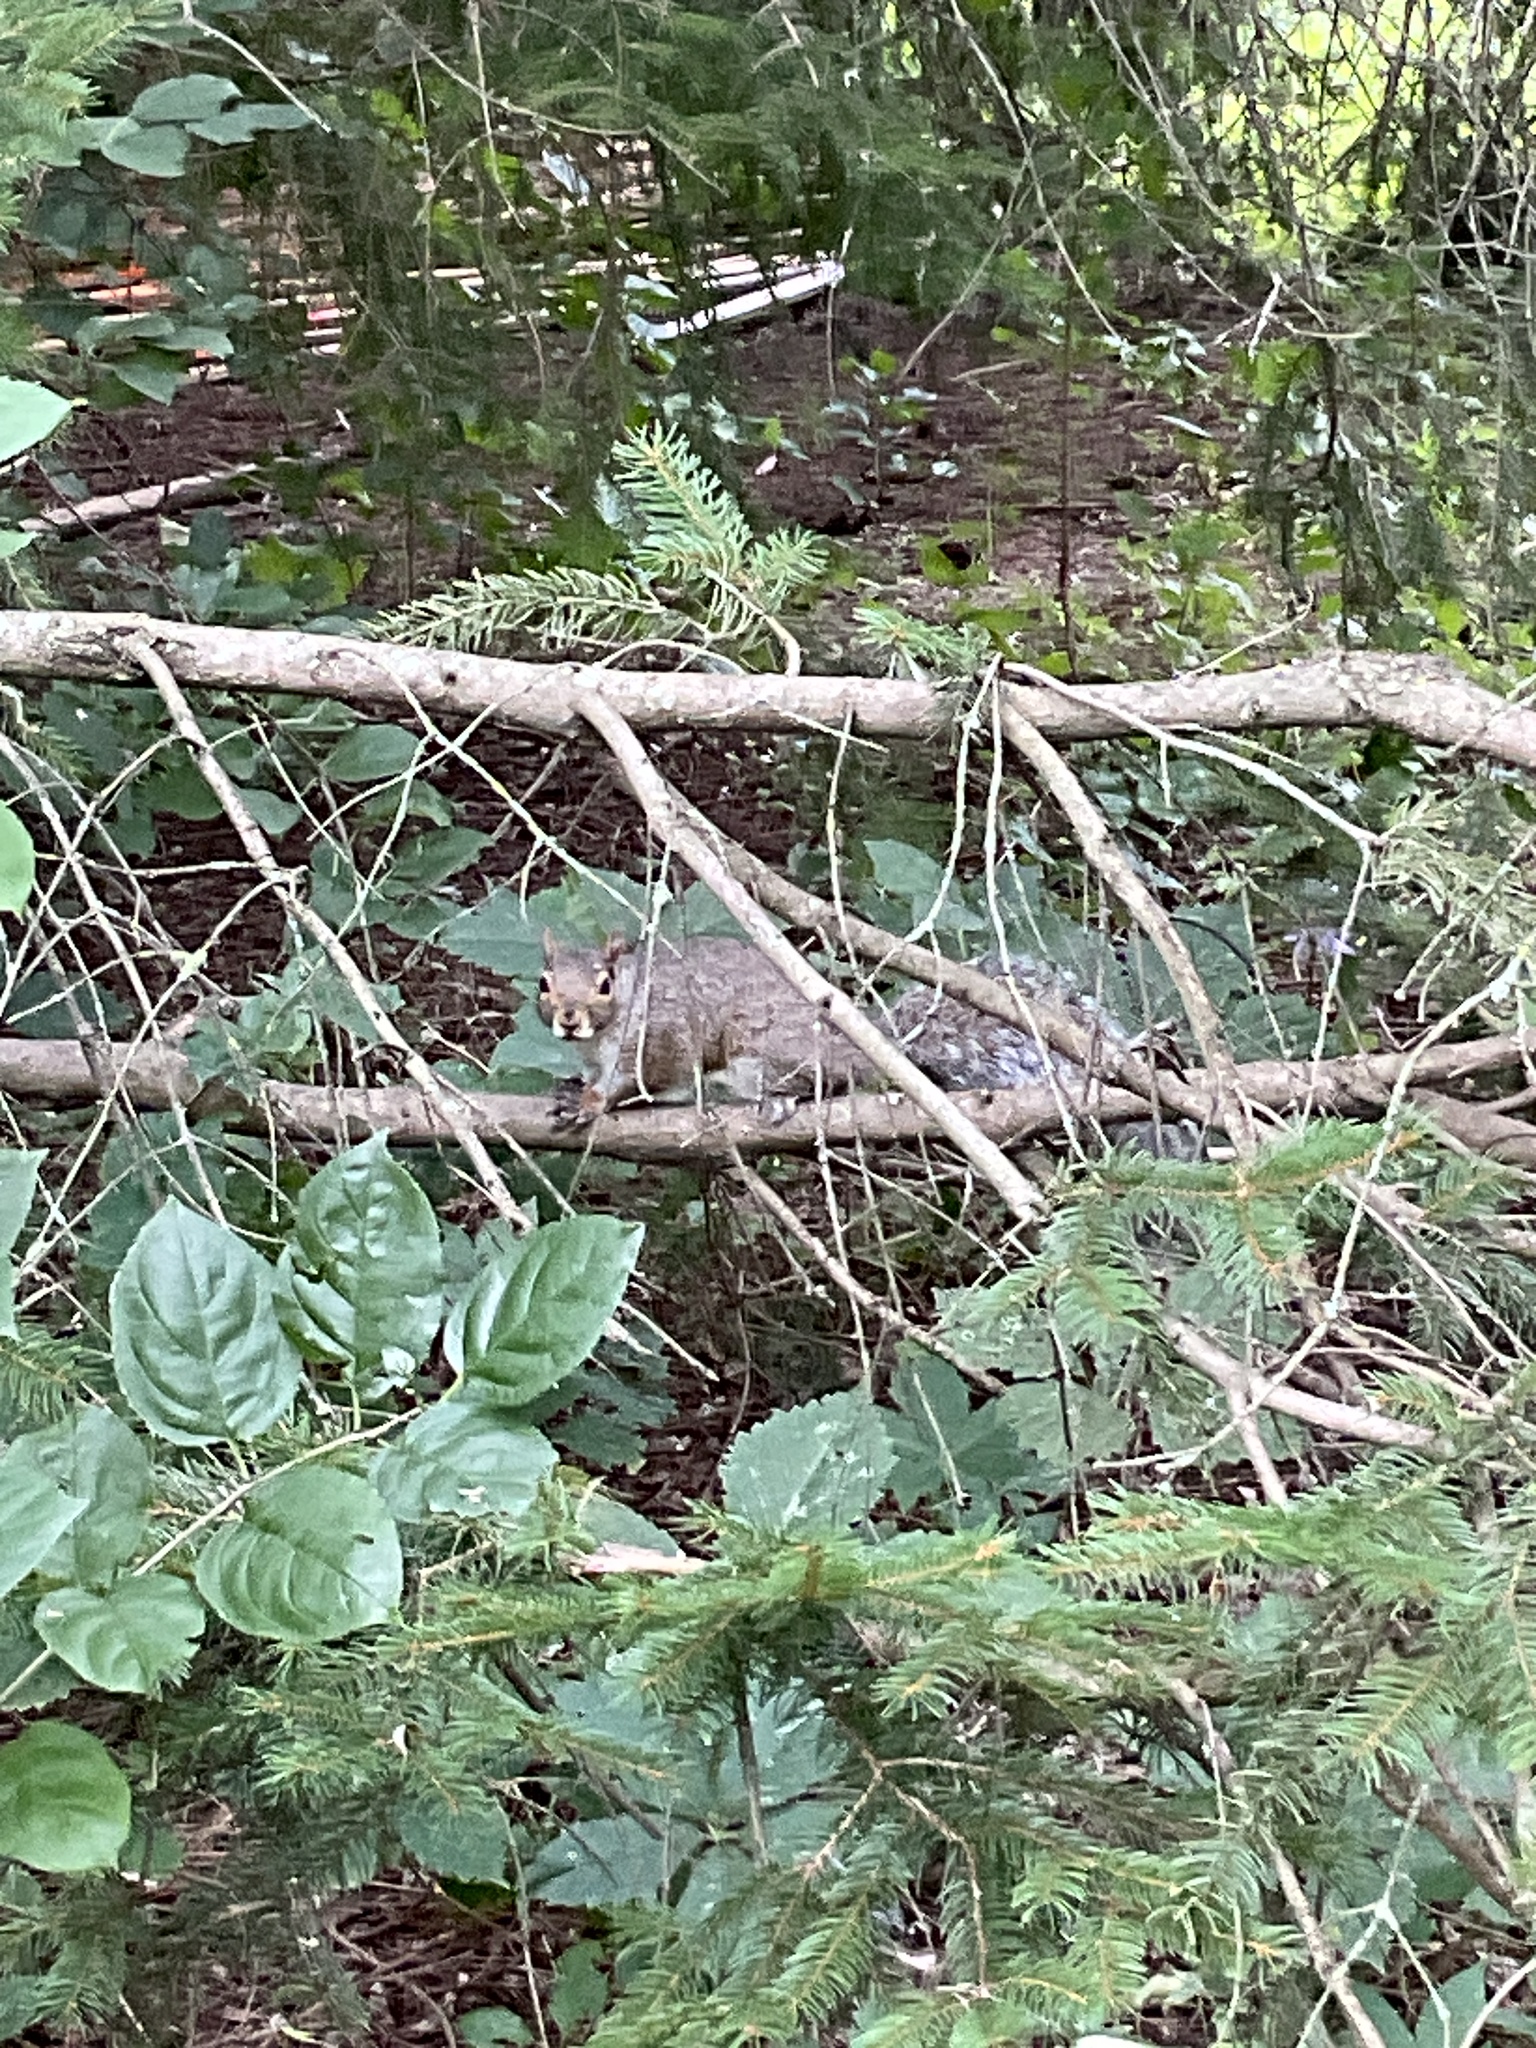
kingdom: Animalia
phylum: Chordata
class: Mammalia
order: Rodentia
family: Sciuridae
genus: Sciurus
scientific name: Sciurus carolinensis
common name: Eastern gray squirrel
